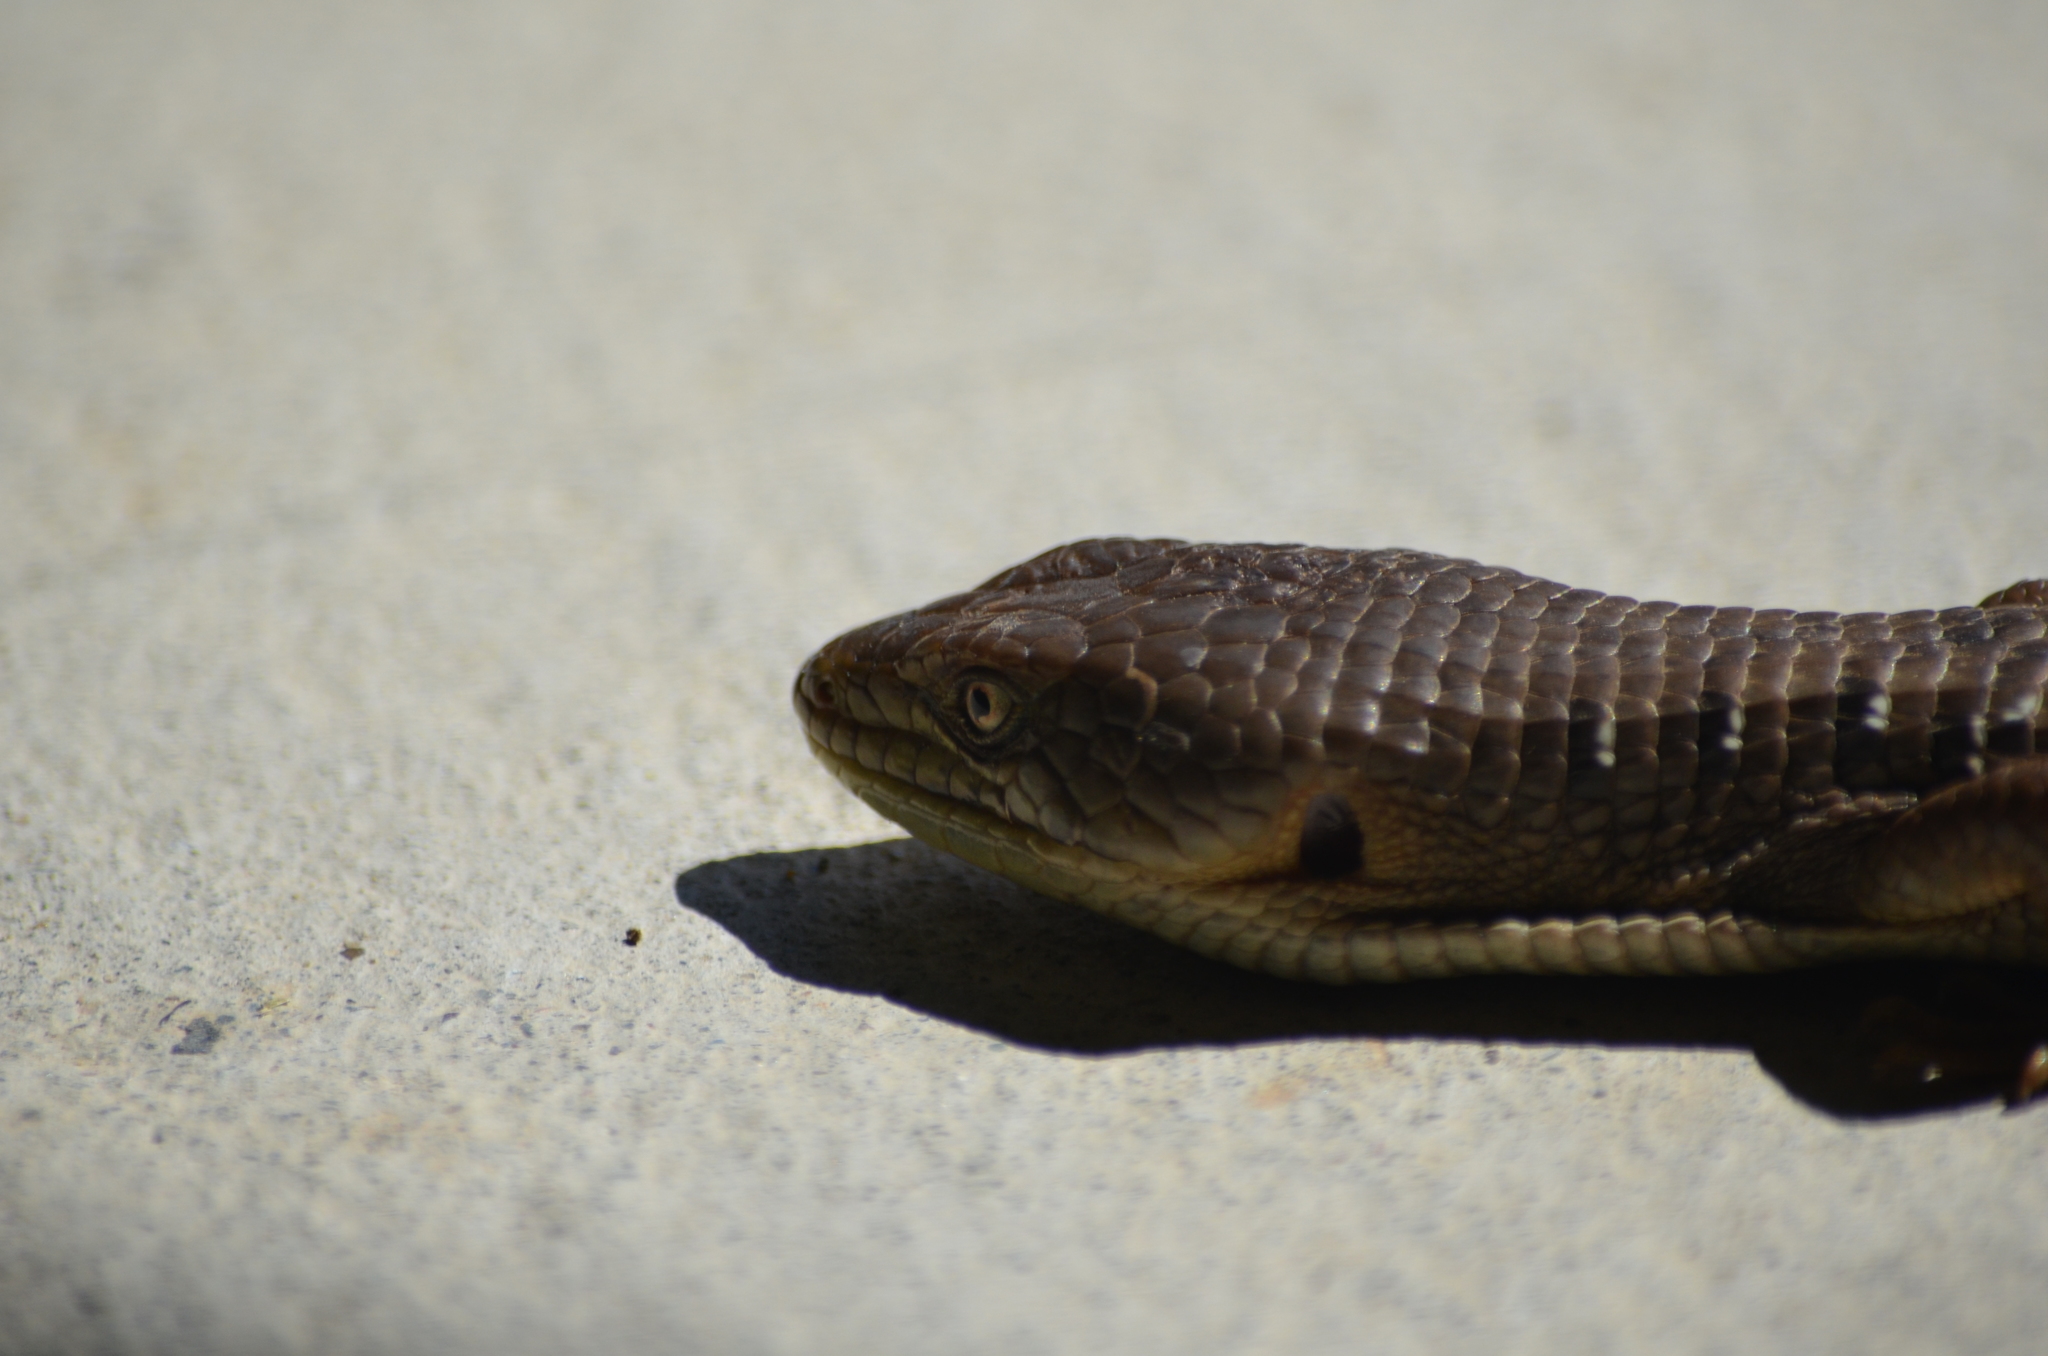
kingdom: Animalia
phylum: Chordata
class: Squamata
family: Anguidae
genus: Elgaria
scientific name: Elgaria multicarinata
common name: Southern alligator lizard
